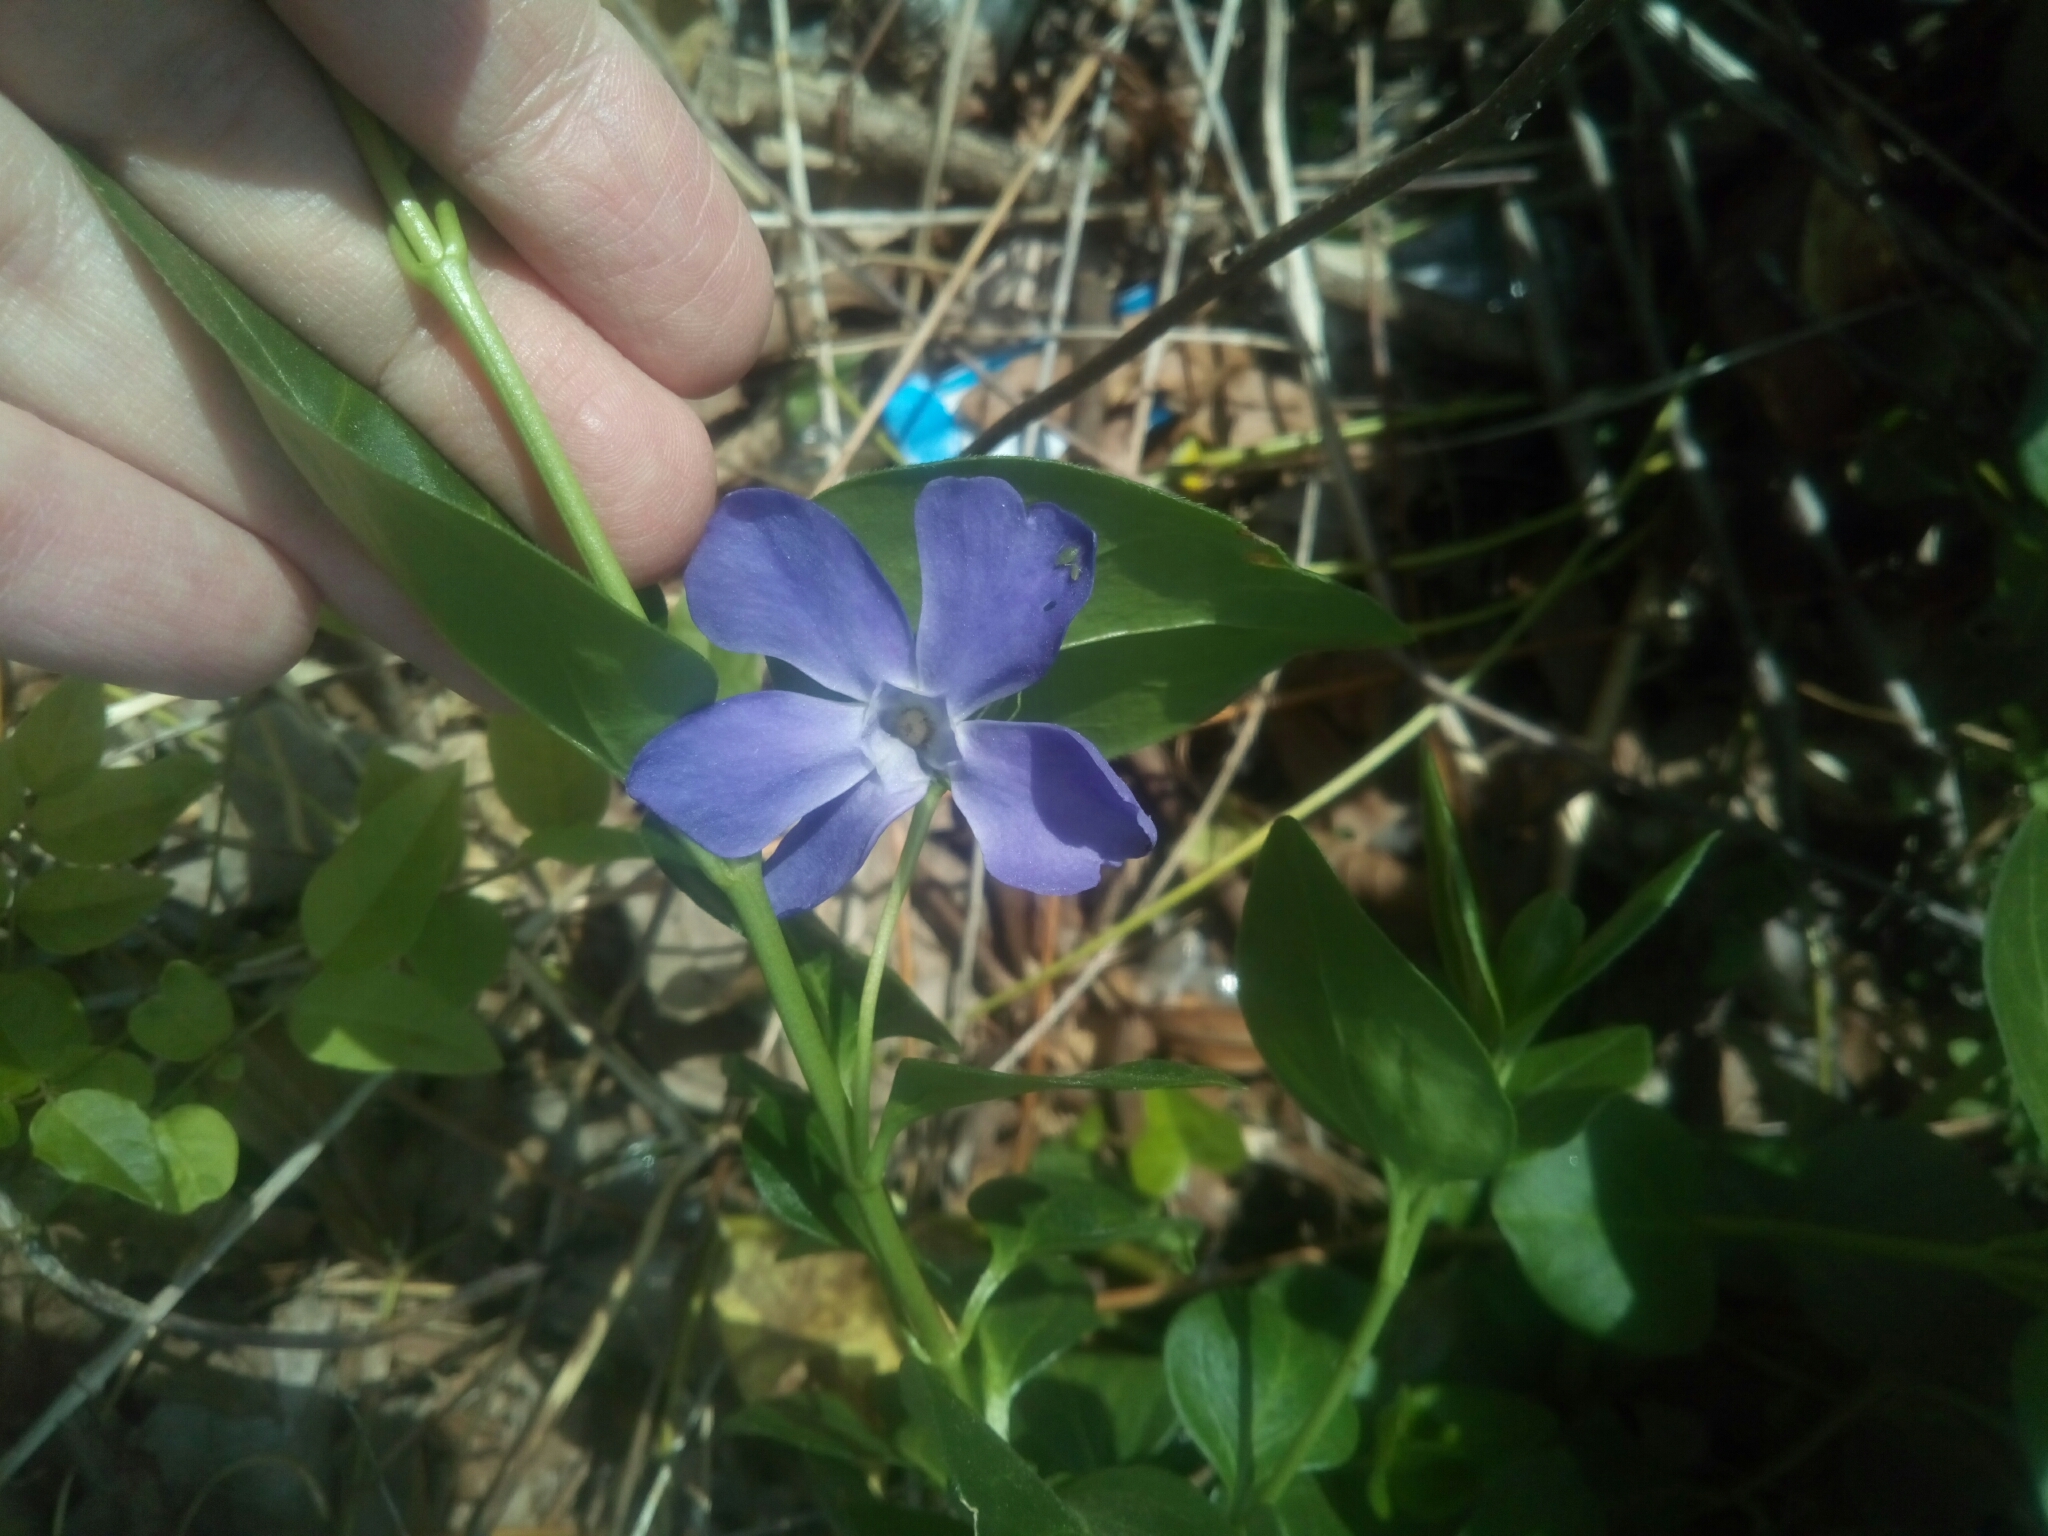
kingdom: Plantae
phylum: Tracheophyta
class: Magnoliopsida
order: Gentianales
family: Apocynaceae
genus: Vinca
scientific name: Vinca major
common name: Greater periwinkle
